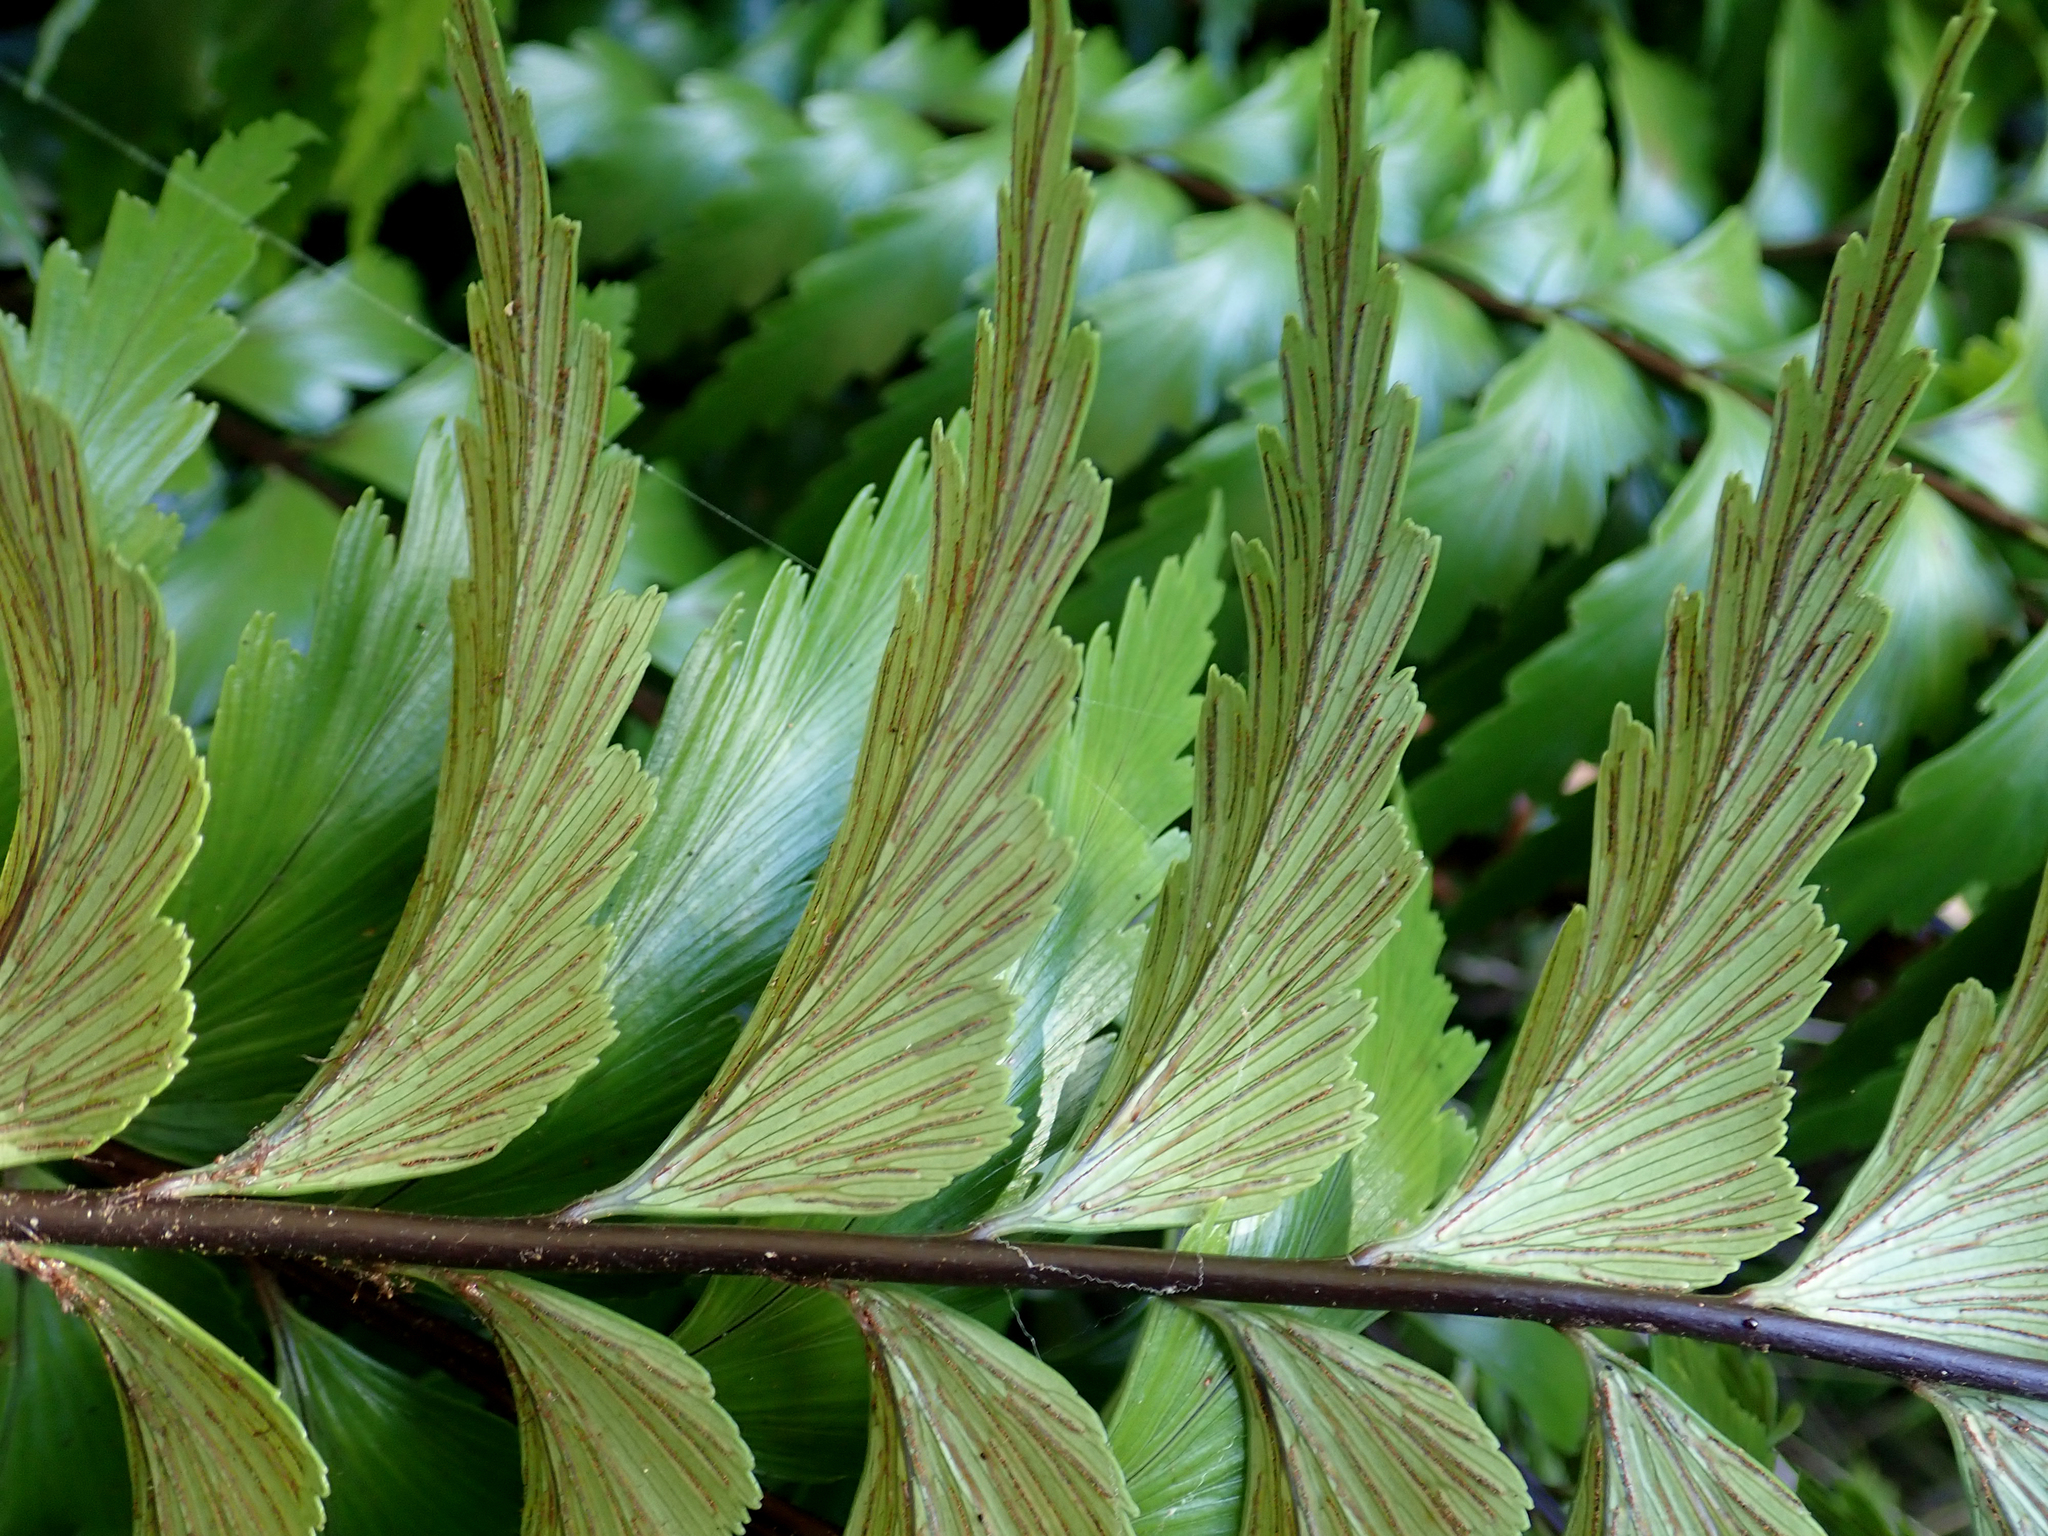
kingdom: Plantae
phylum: Tracheophyta
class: Polypodiopsida
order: Polypodiales
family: Aspleniaceae
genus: Asplenium
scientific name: Asplenium polyodon
